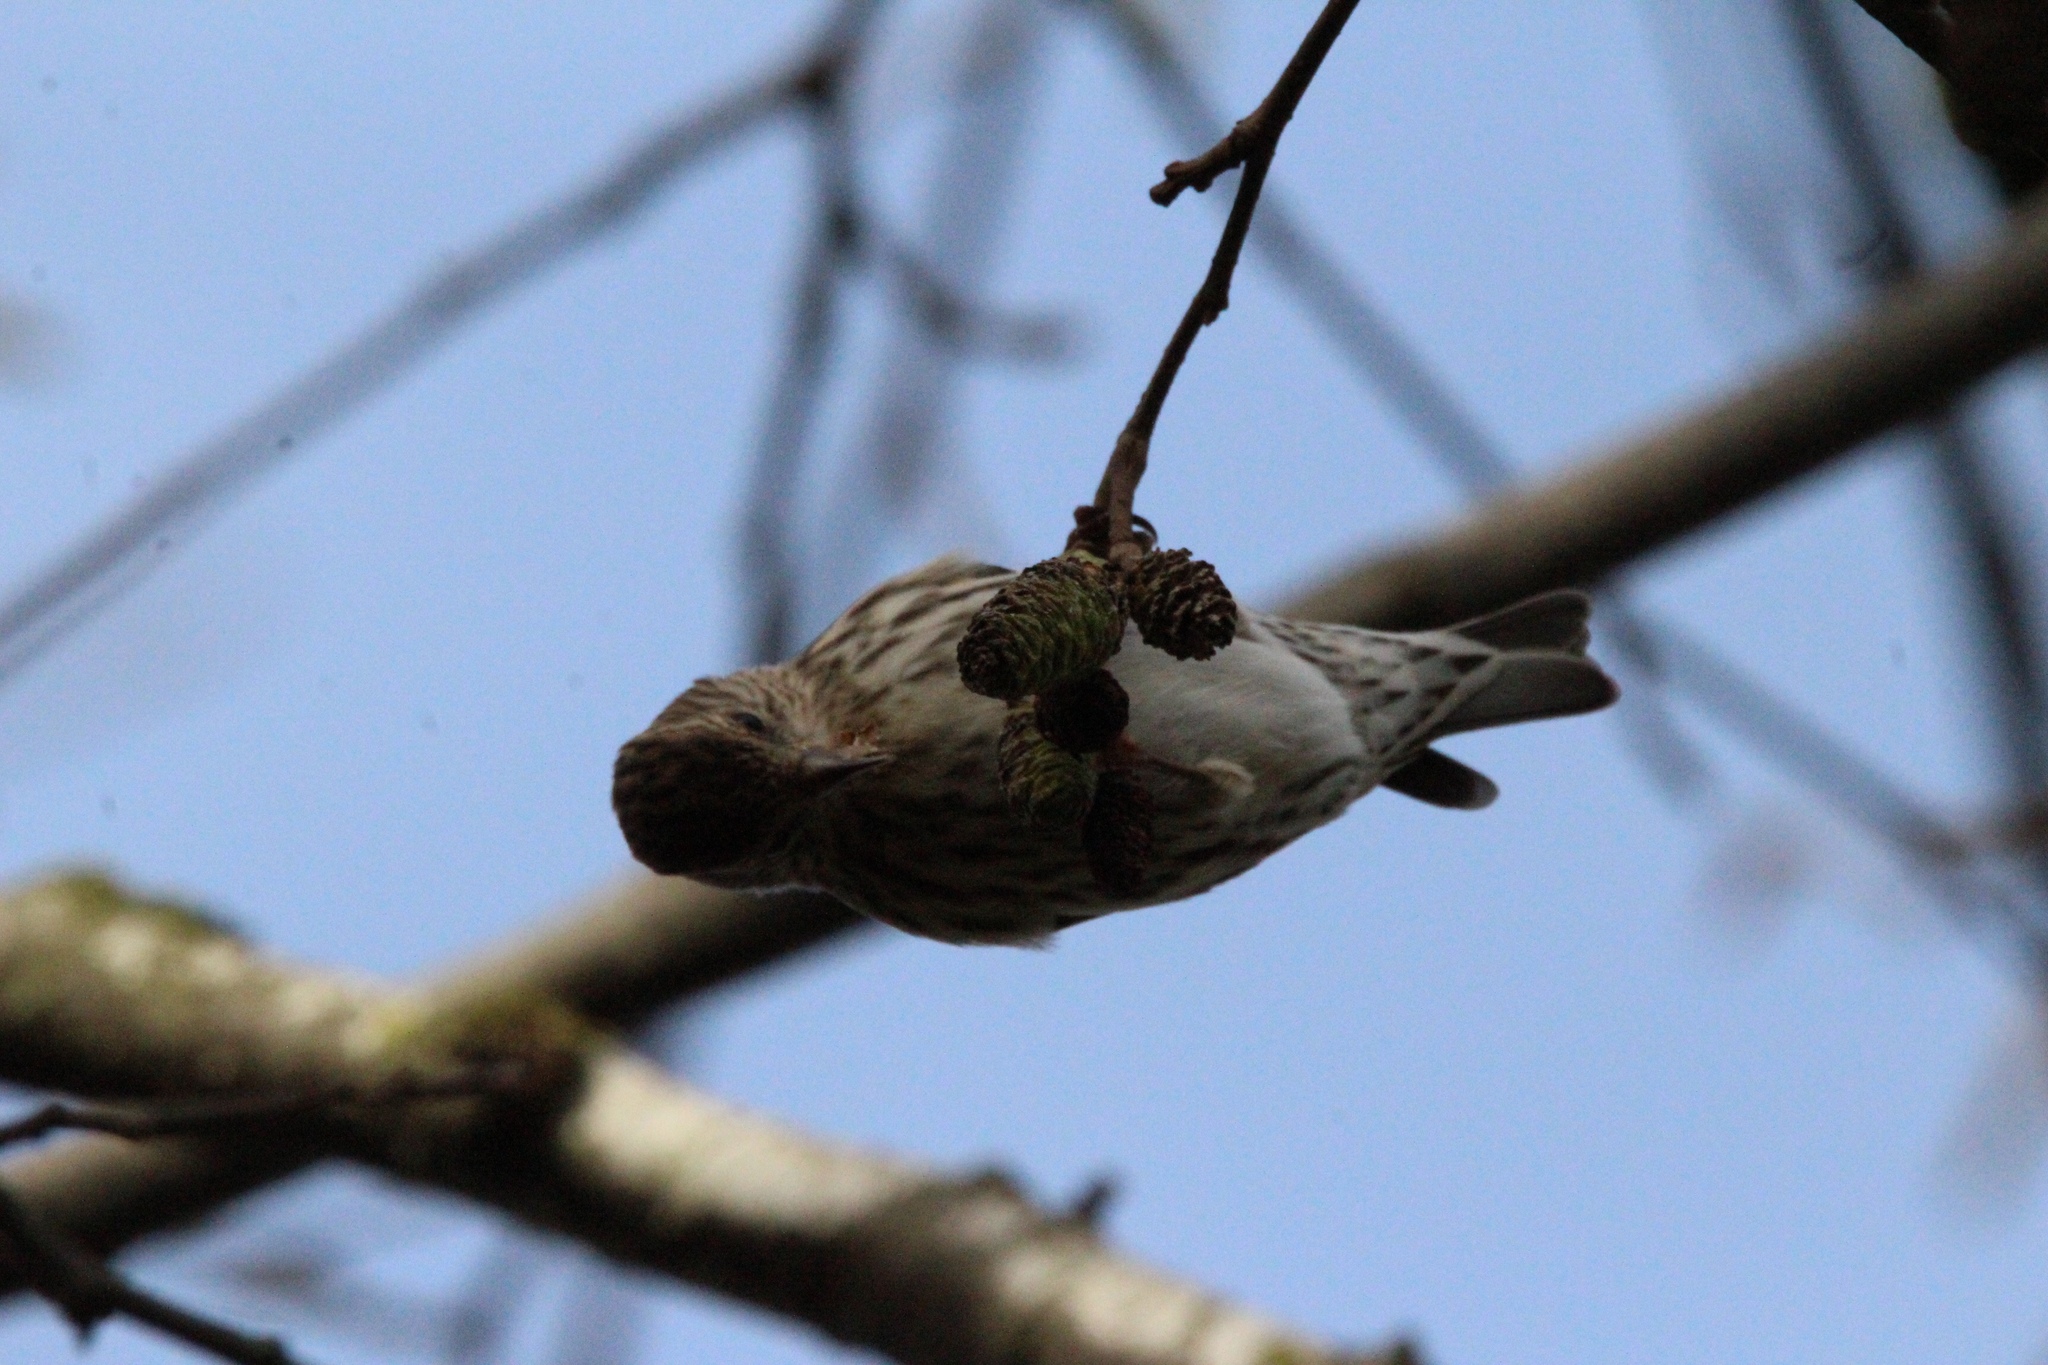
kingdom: Animalia
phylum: Chordata
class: Aves
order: Passeriformes
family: Fringillidae
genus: Spinus
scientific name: Spinus pinus
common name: Pine siskin
